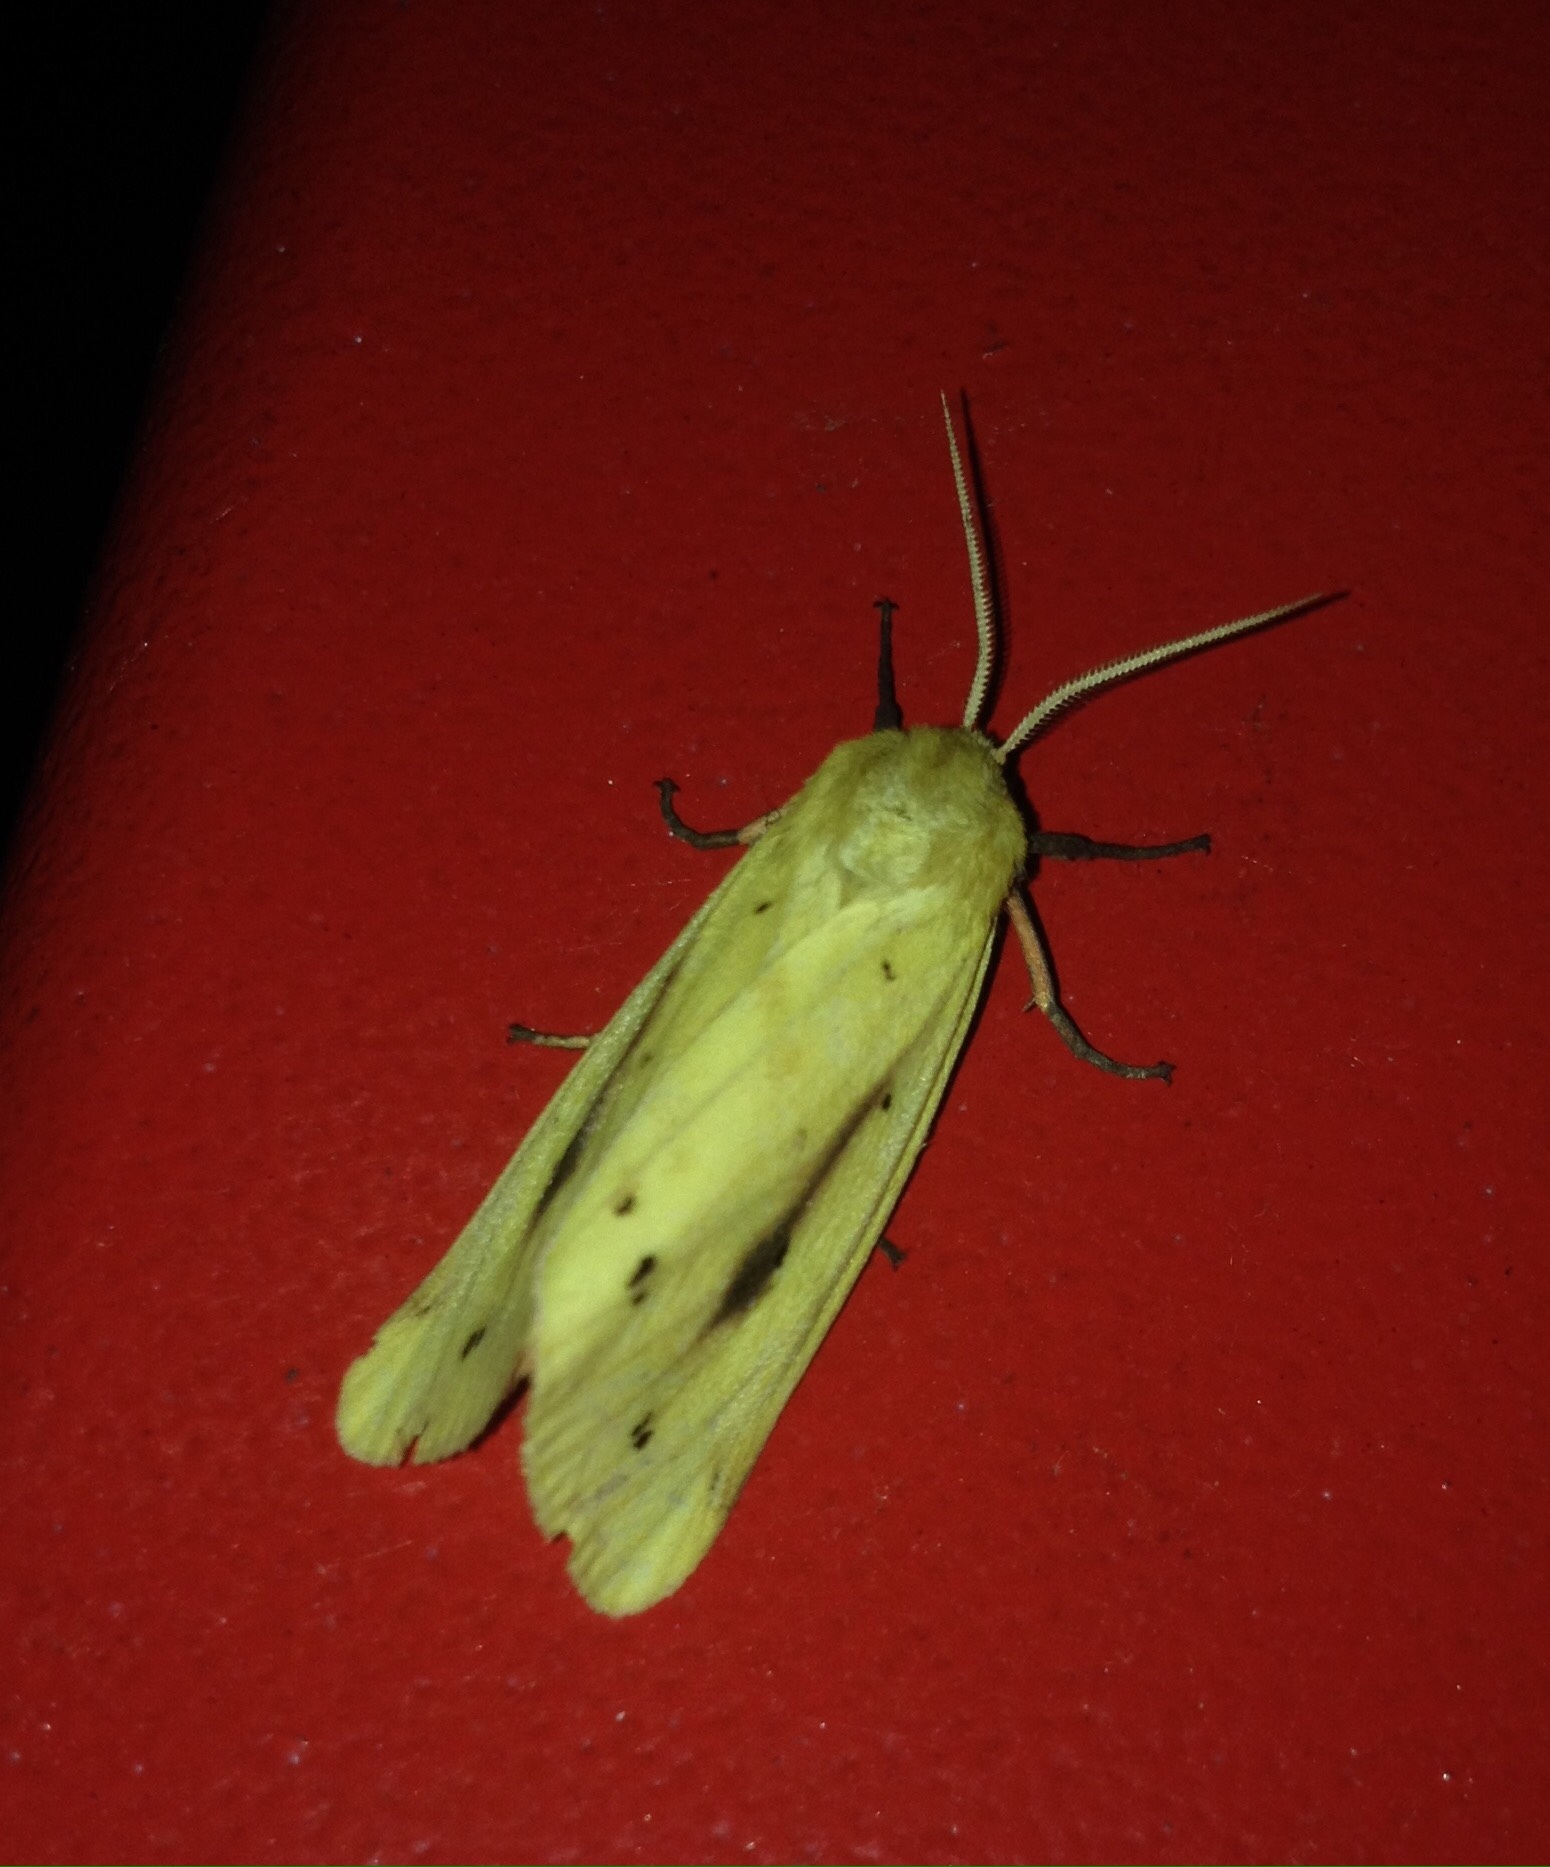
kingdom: Animalia
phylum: Arthropoda
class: Insecta
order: Lepidoptera
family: Erebidae
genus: Rhyparioides
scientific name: Rhyparioides metelkana
